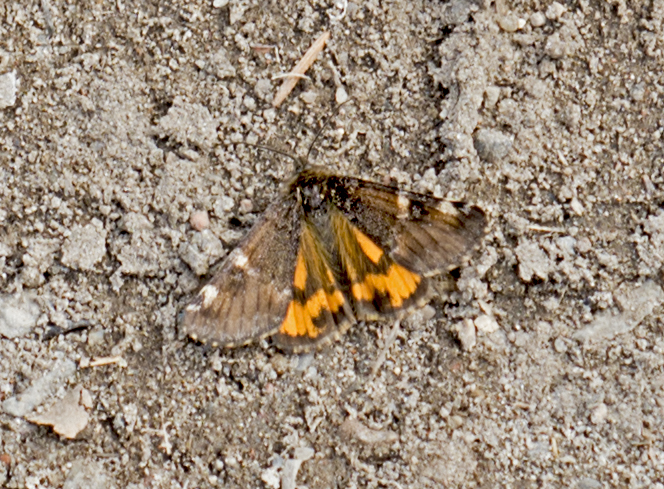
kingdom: Animalia
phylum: Arthropoda
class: Insecta
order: Lepidoptera
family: Geometridae
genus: Archiearis
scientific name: Archiearis parthenias
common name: Orange underwing
